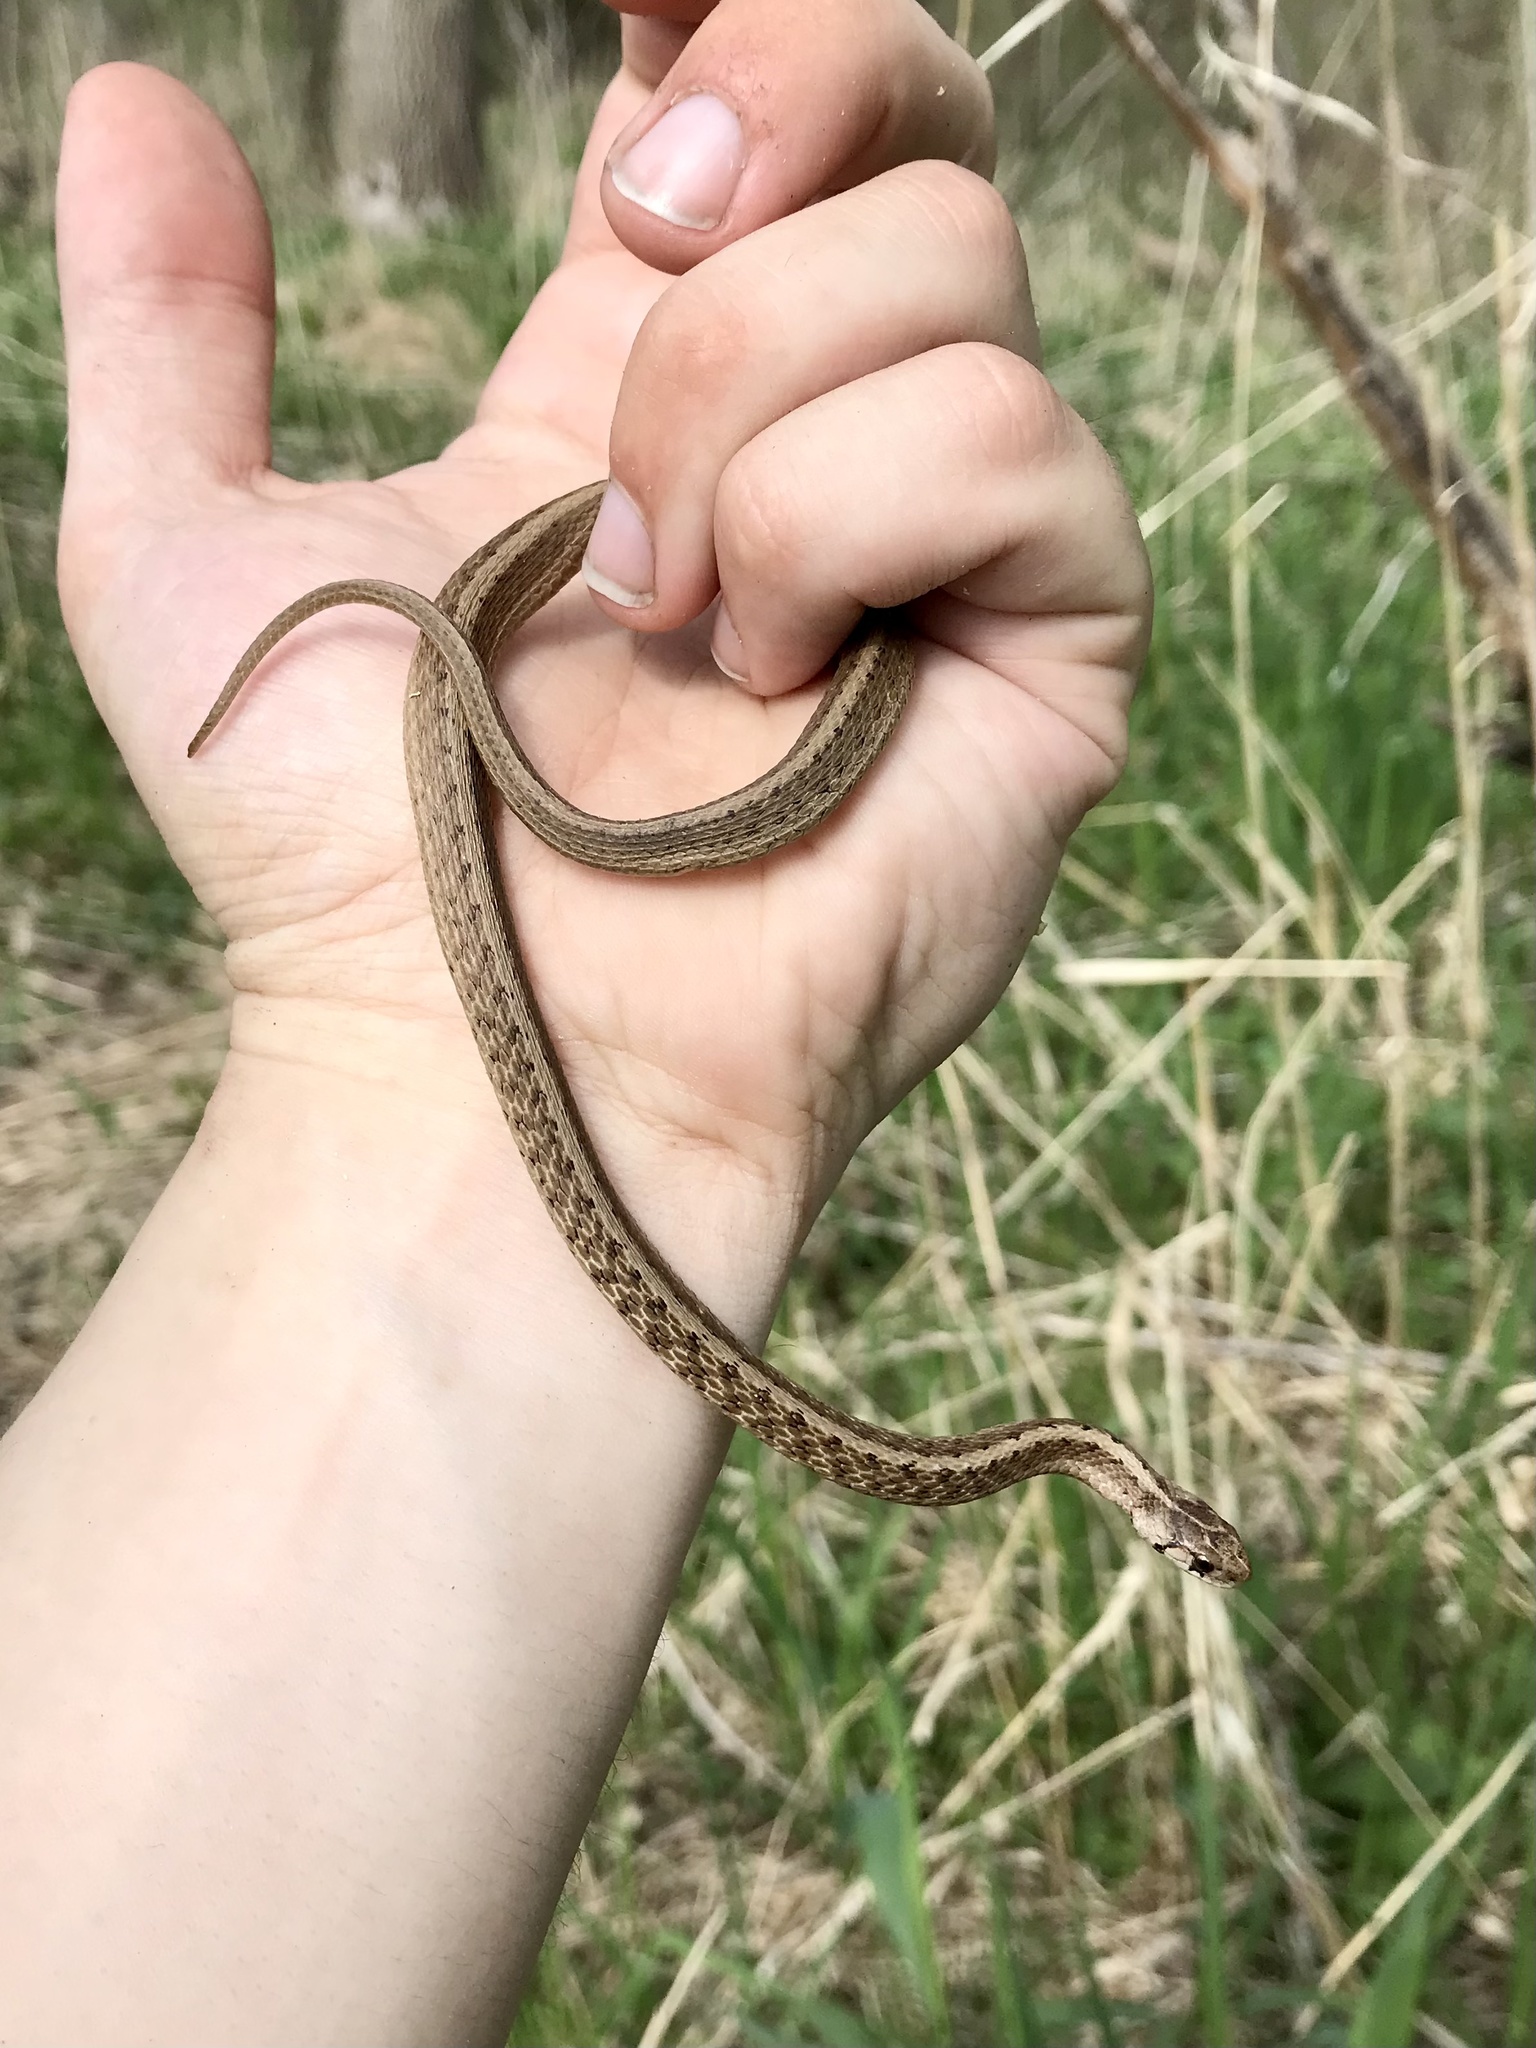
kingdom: Animalia
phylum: Chordata
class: Squamata
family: Colubridae
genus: Storeria
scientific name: Storeria dekayi
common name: (dekay’s) brown snake
